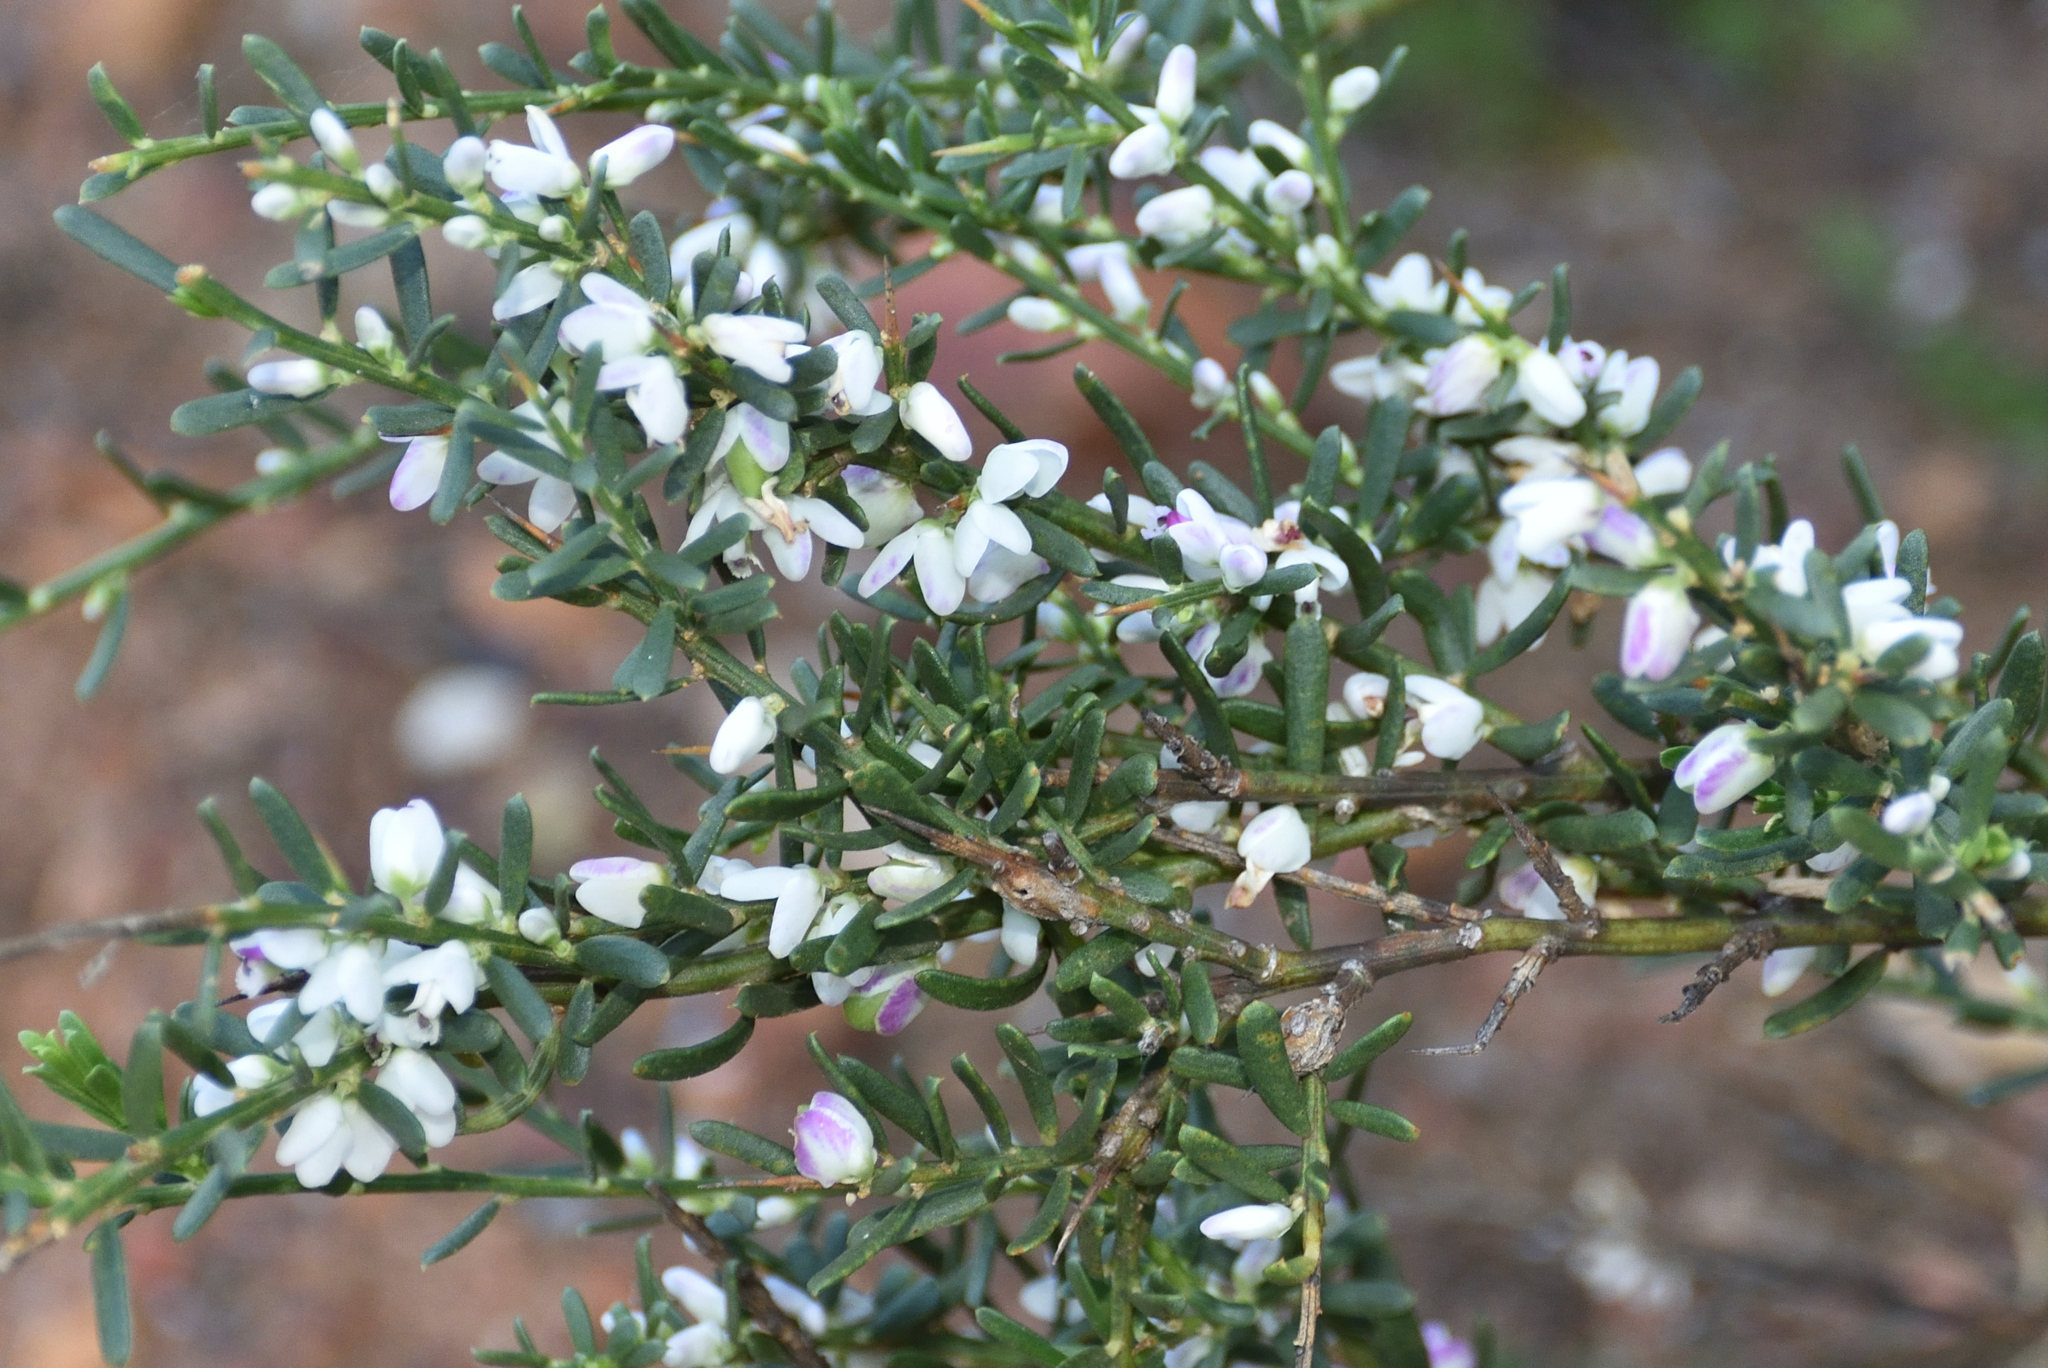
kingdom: Plantae
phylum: Tracheophyta
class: Magnoliopsida
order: Fabales
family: Polygalaceae
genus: Muraltia
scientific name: Muraltia spinosa
